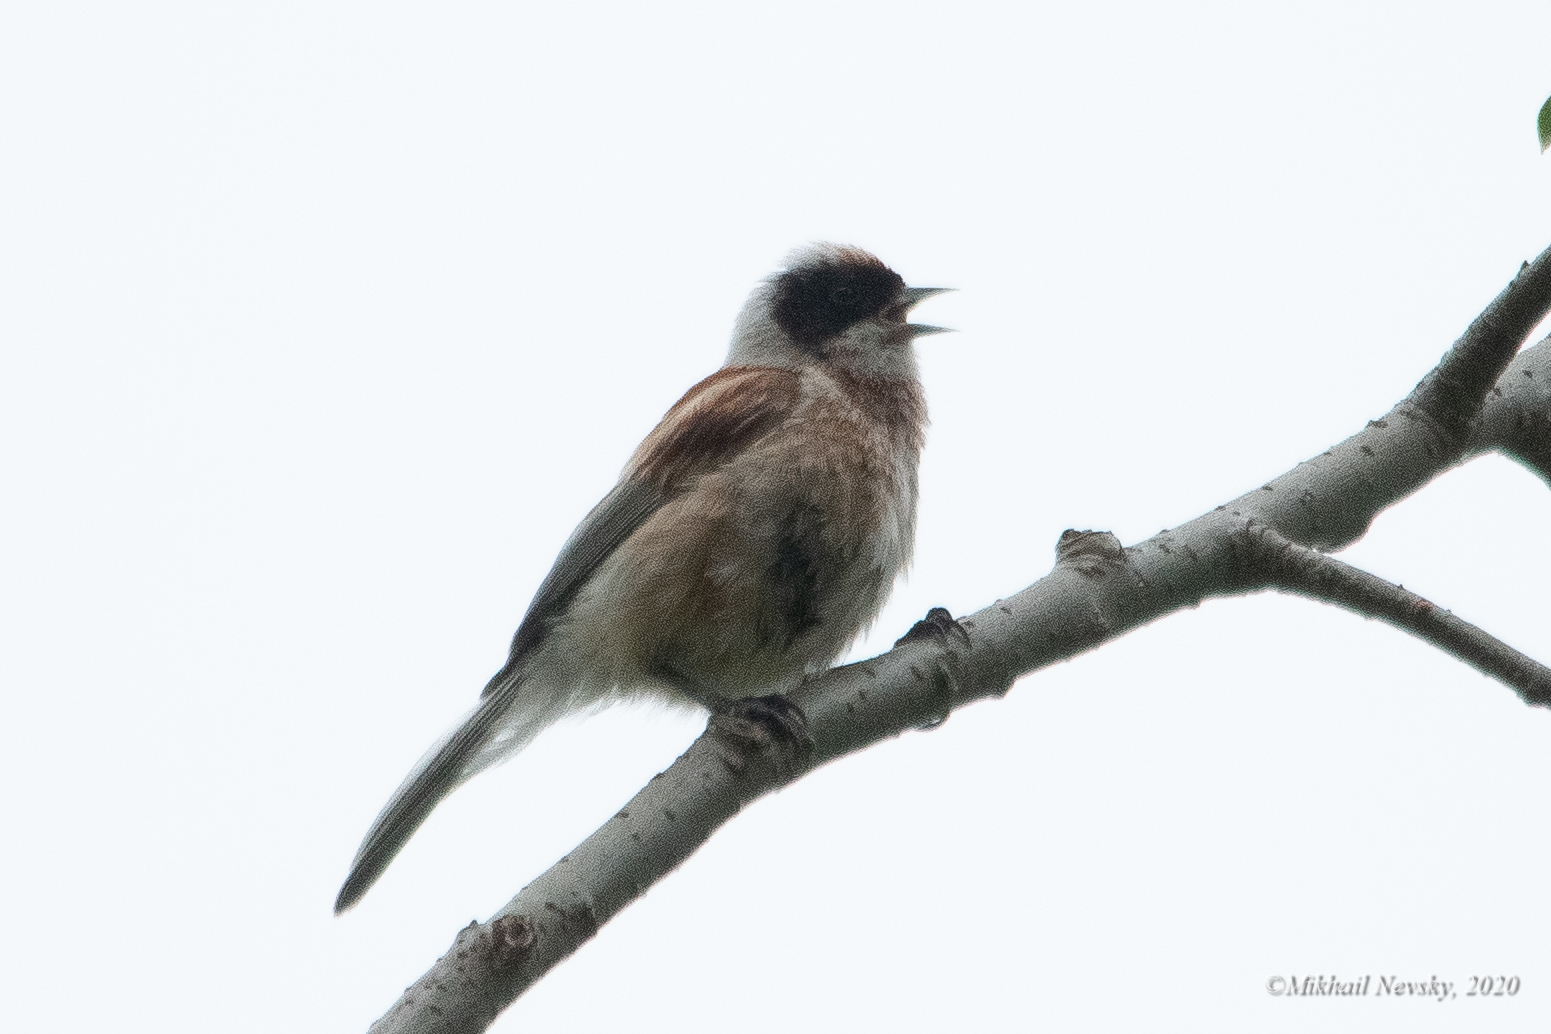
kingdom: Animalia
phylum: Chordata
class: Aves
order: Passeriformes
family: Remizidae
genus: Remiz
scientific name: Remiz pendulinus
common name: Eurasian penduline tit
